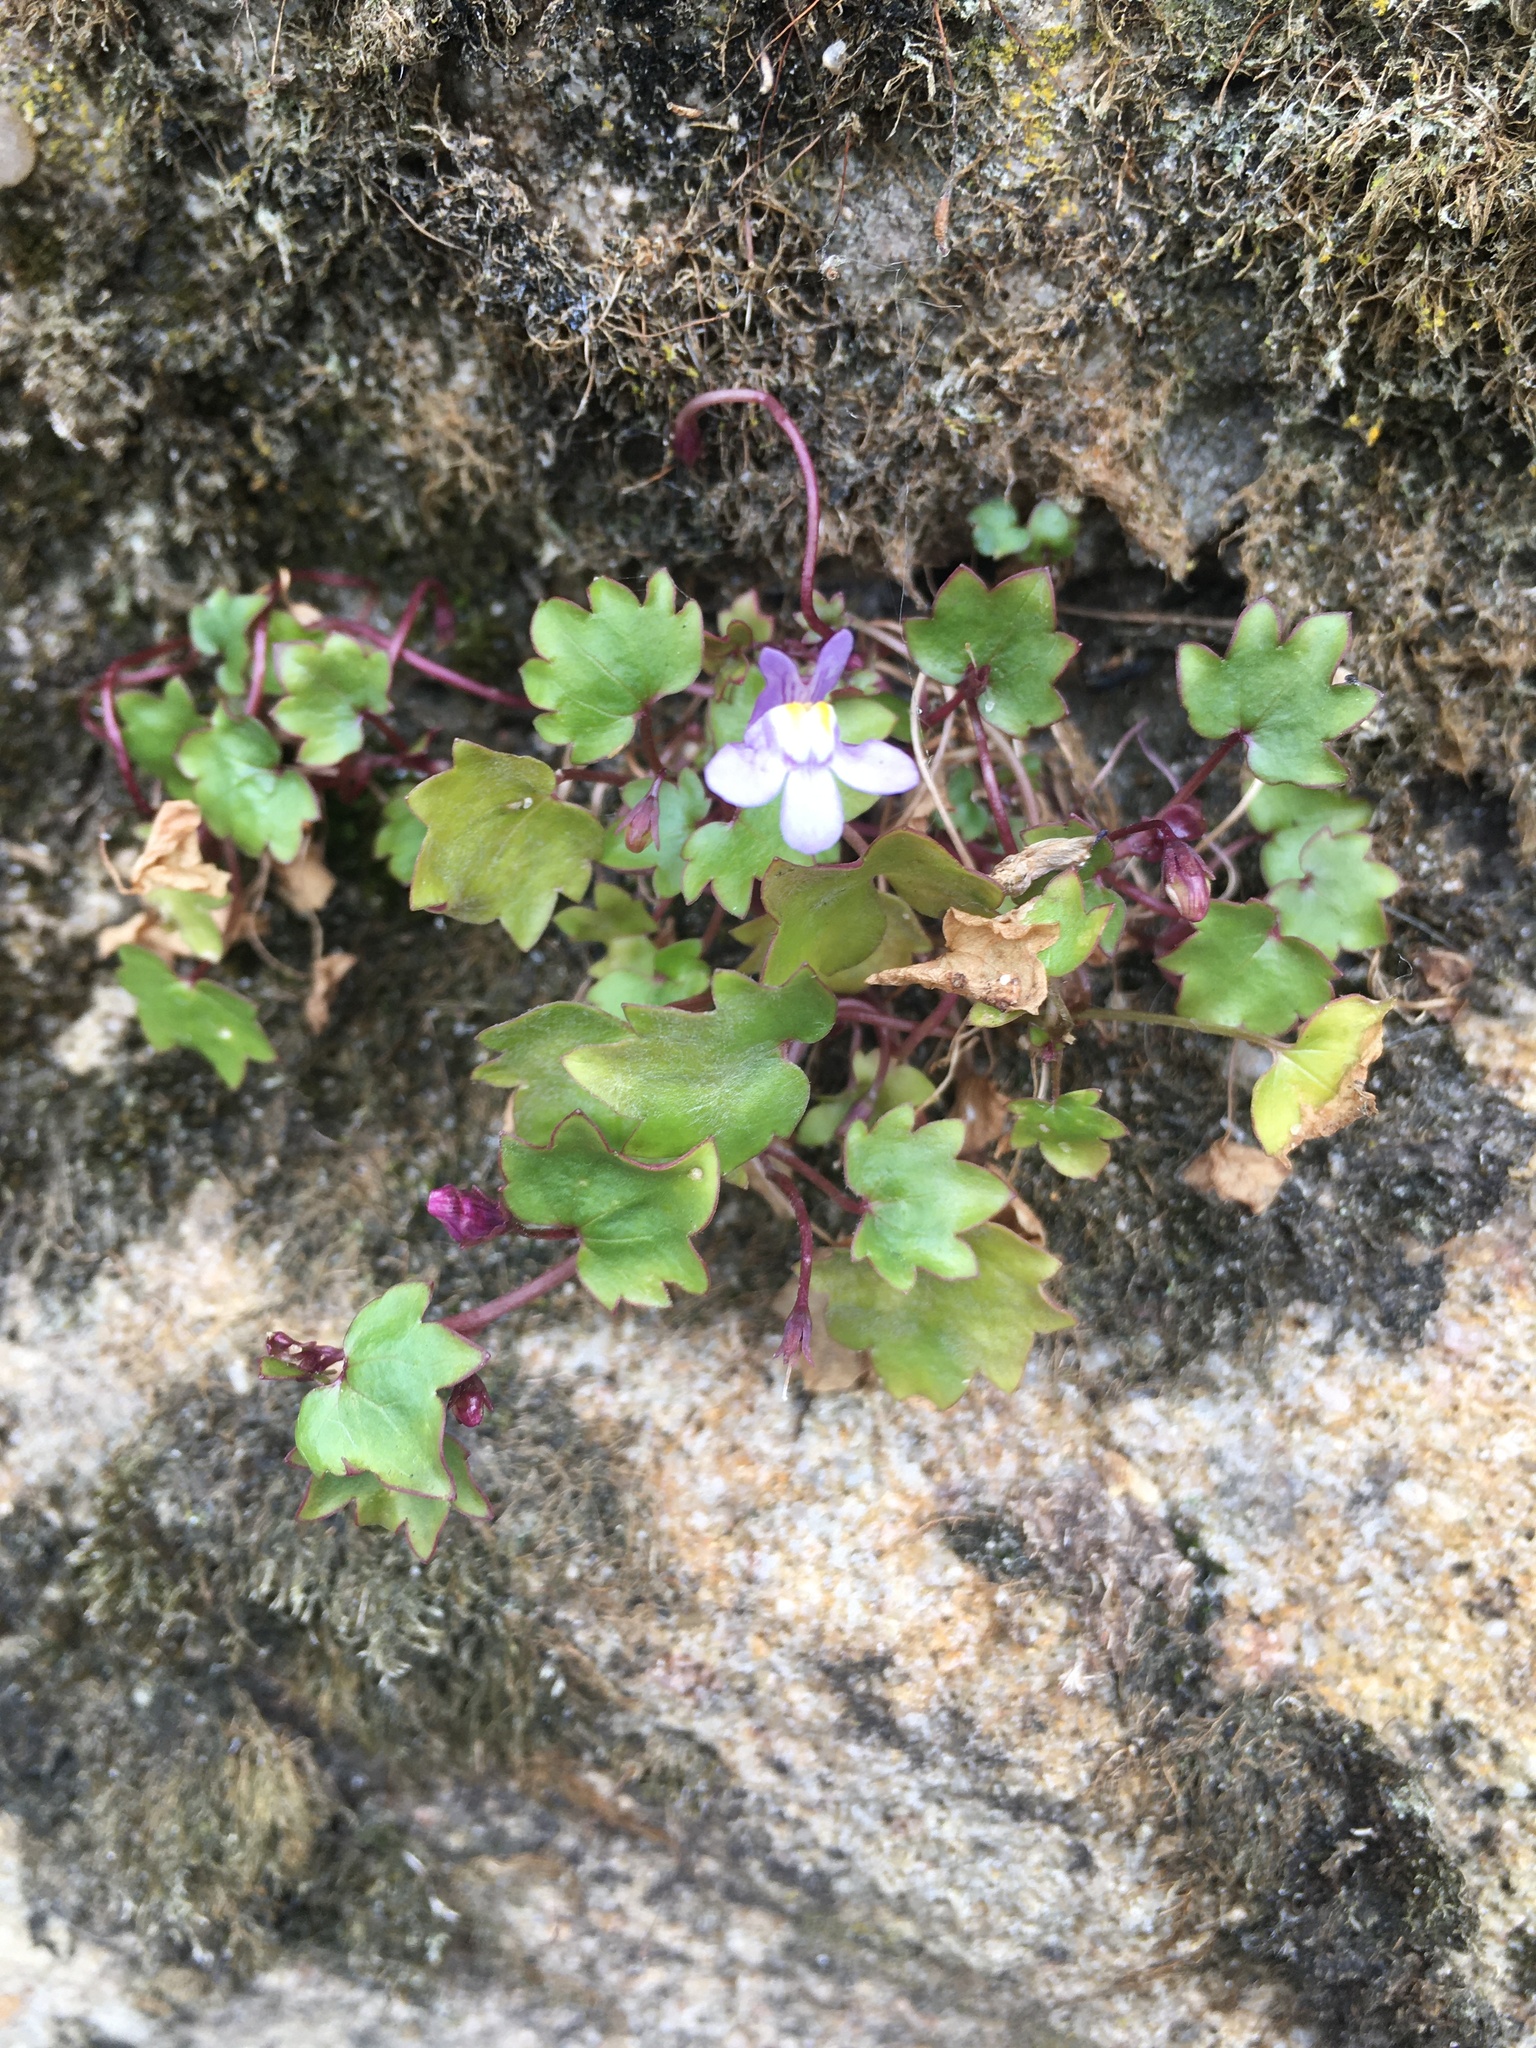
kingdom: Plantae
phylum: Tracheophyta
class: Magnoliopsida
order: Lamiales
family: Plantaginaceae
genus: Cymbalaria
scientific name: Cymbalaria muralis
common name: Ivy-leaved toadflax
